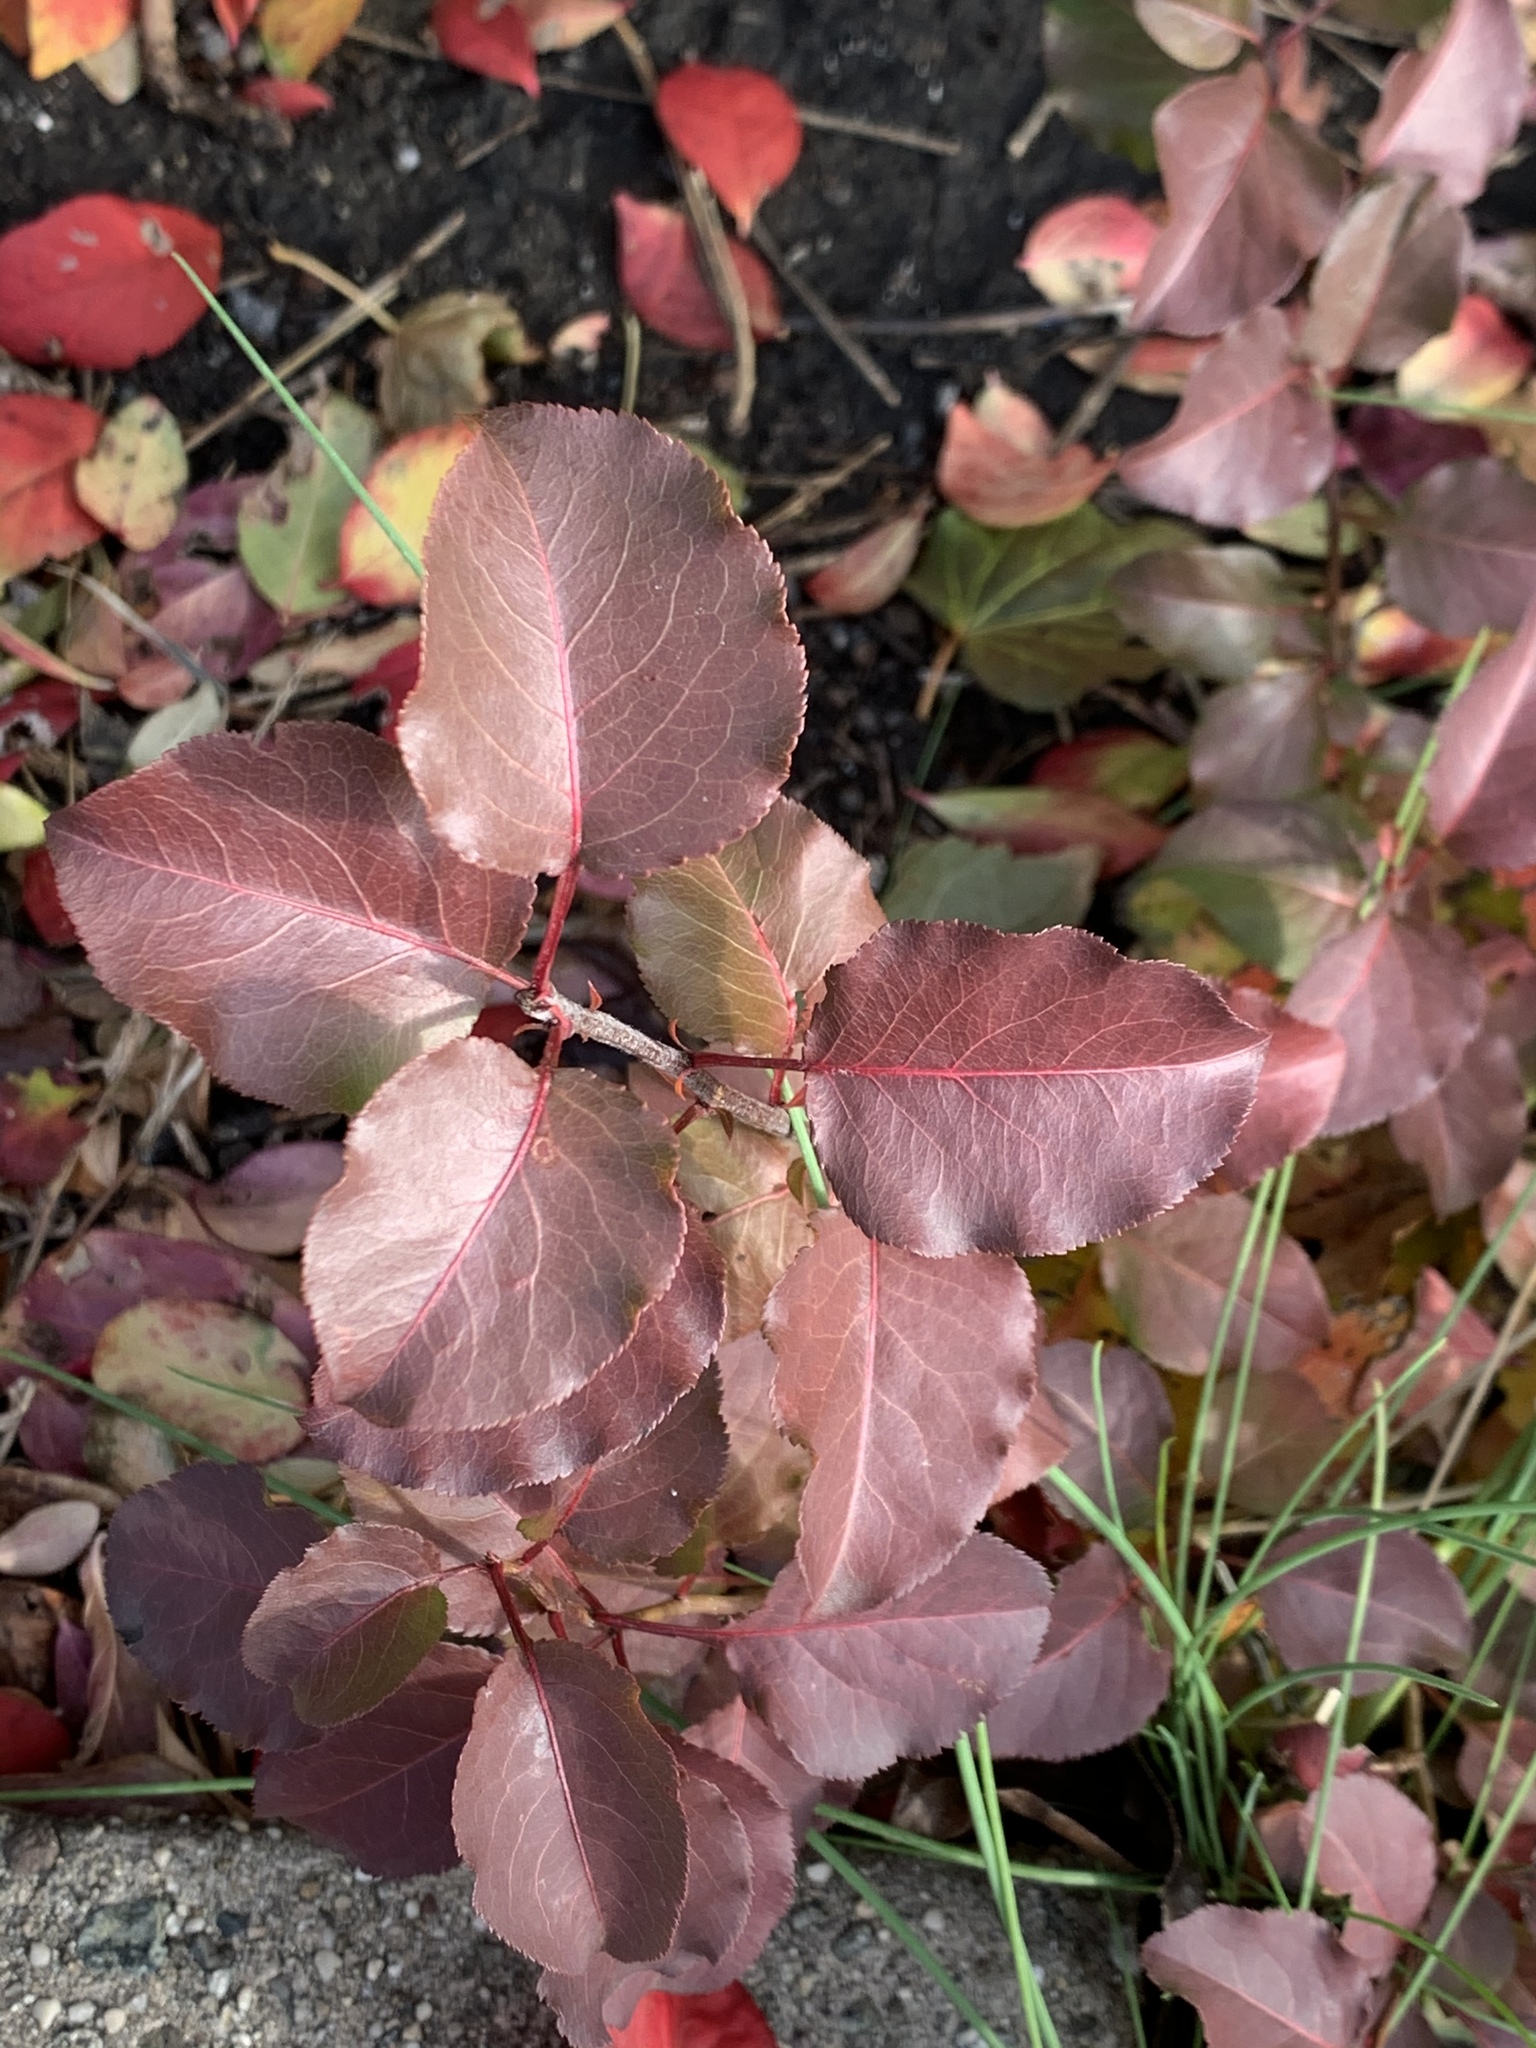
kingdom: Plantae
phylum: Tracheophyta
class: Magnoliopsida
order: Rosales
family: Rosaceae
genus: Pyrus
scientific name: Pyrus calleryana
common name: Callery pear
